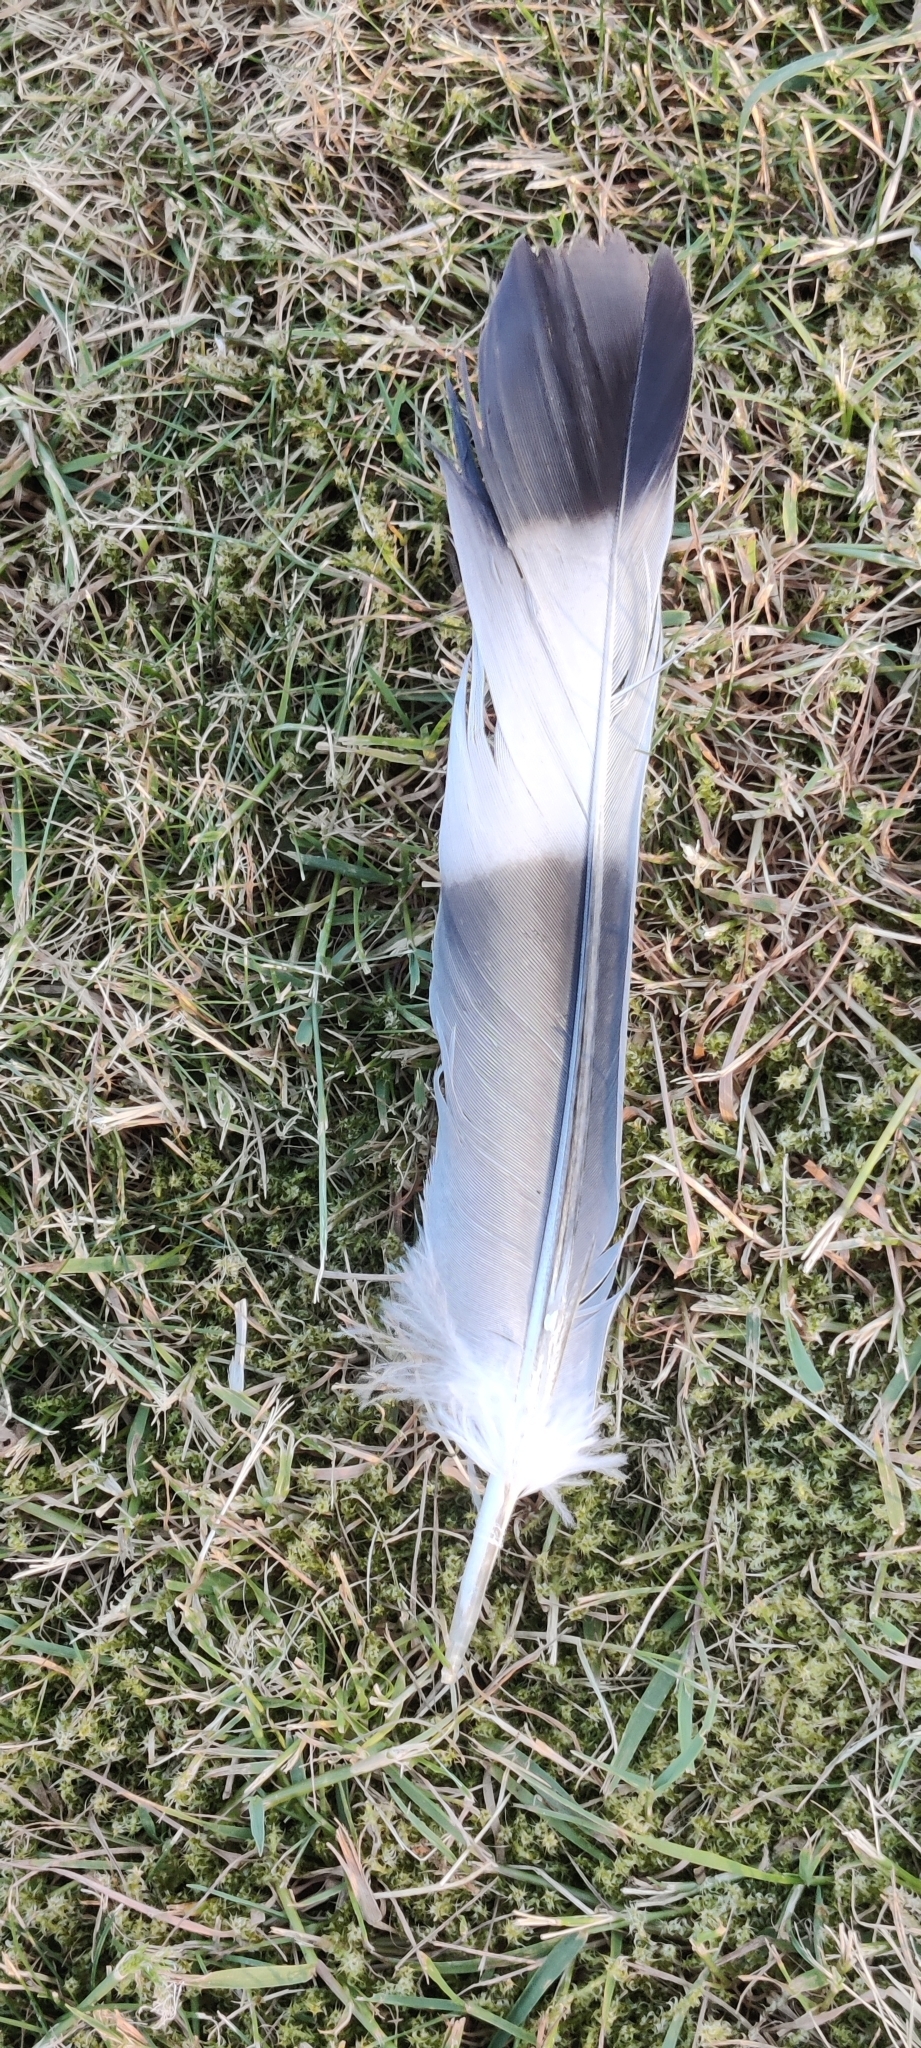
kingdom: Animalia
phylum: Chordata
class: Aves
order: Columbiformes
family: Columbidae
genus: Columba
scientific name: Columba palumbus
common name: Common wood pigeon
